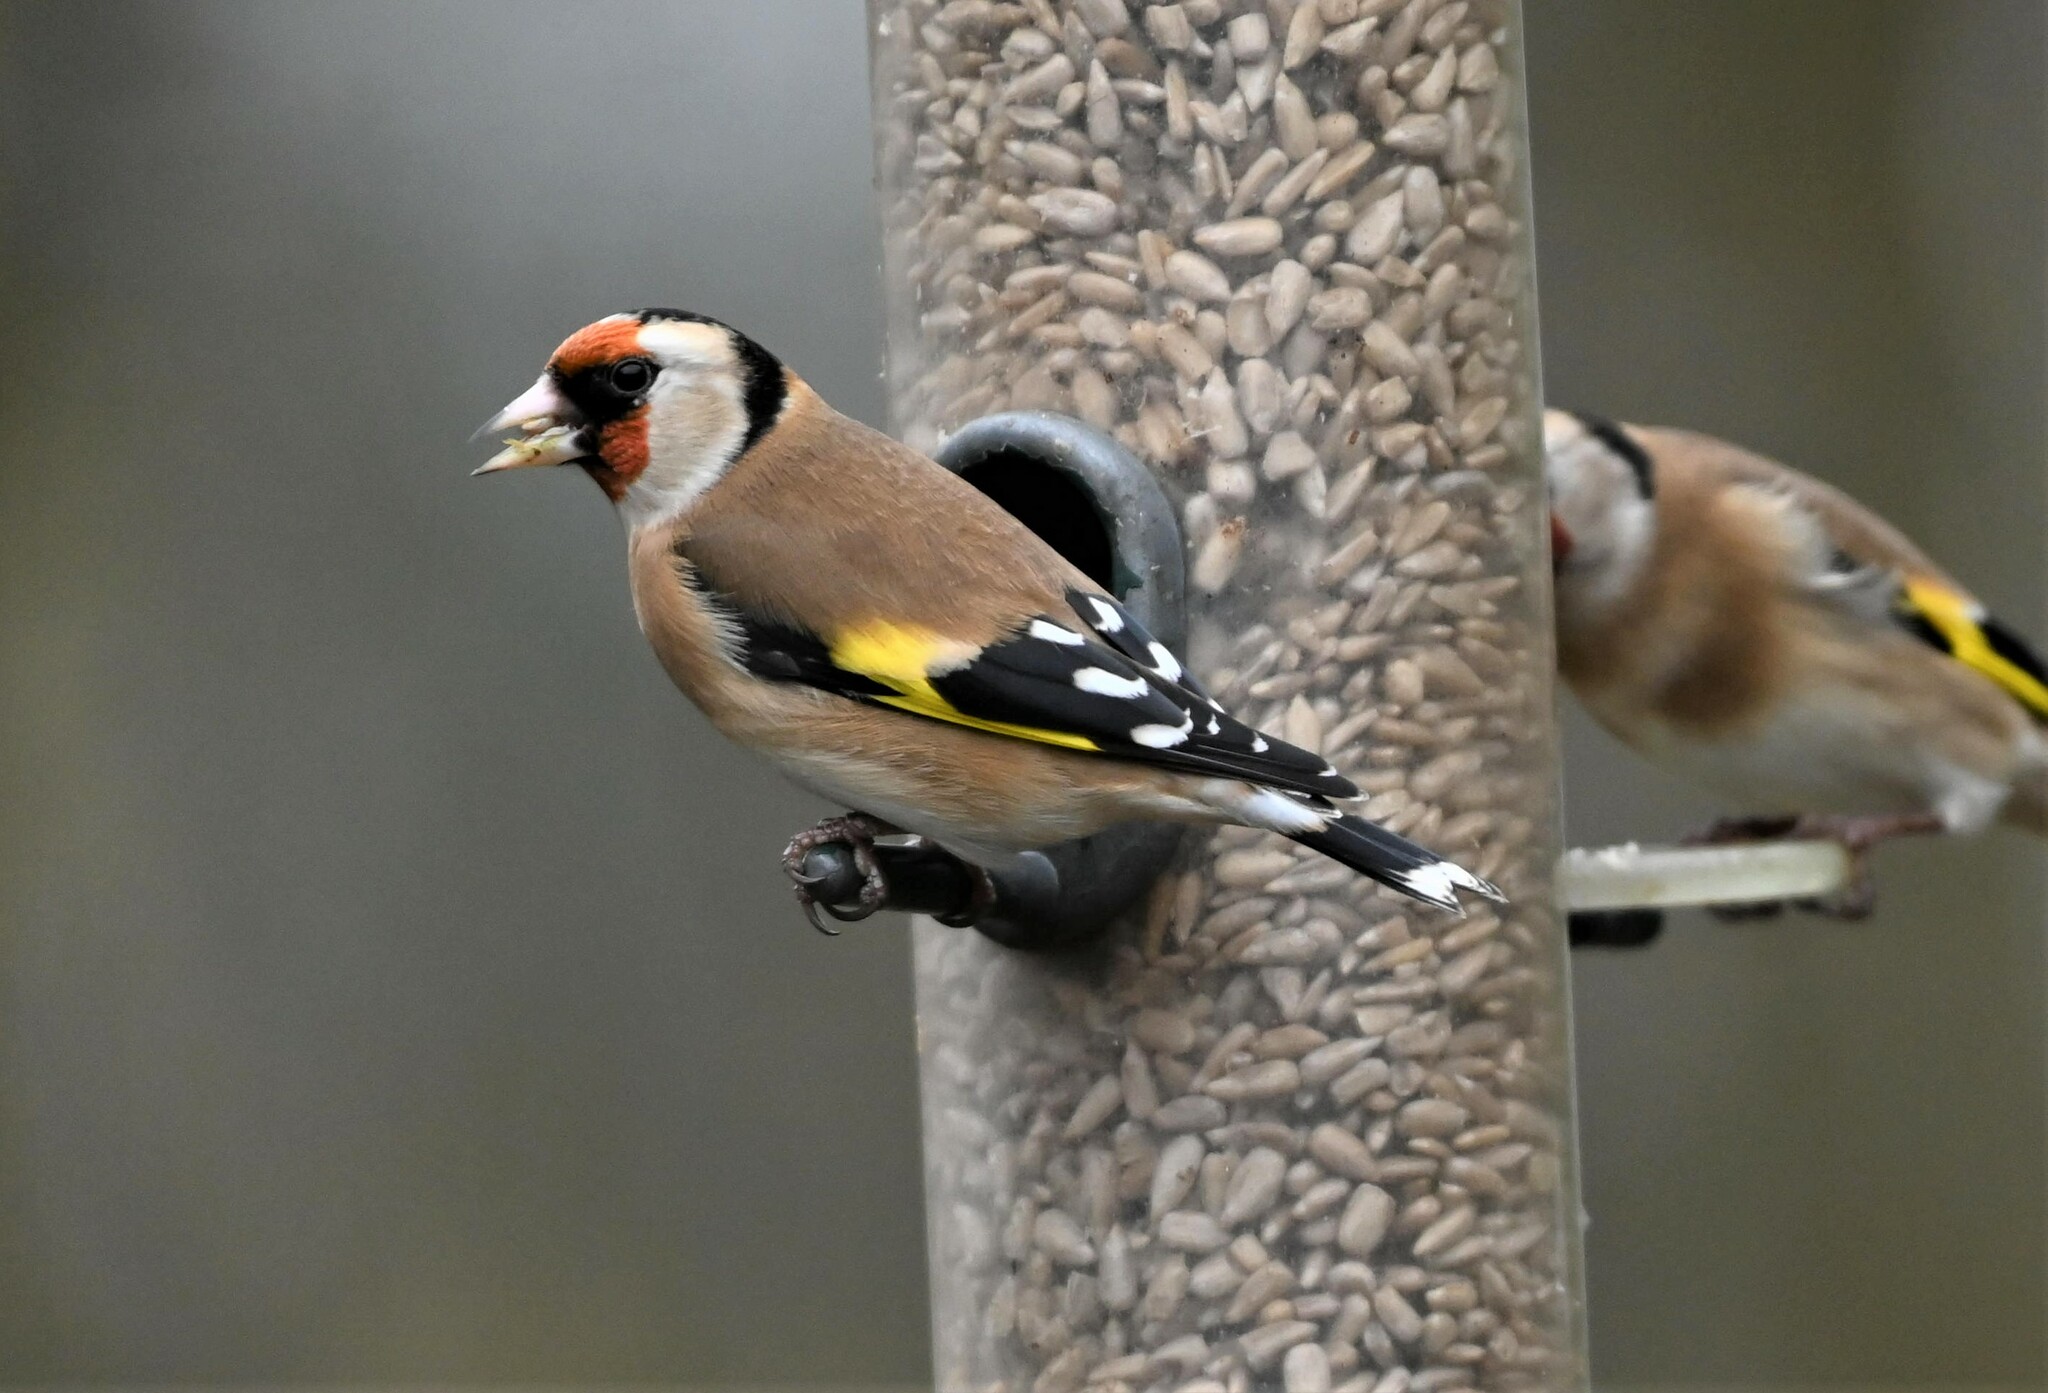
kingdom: Animalia
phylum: Chordata
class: Aves
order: Passeriformes
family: Fringillidae
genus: Carduelis
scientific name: Carduelis carduelis
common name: European goldfinch
